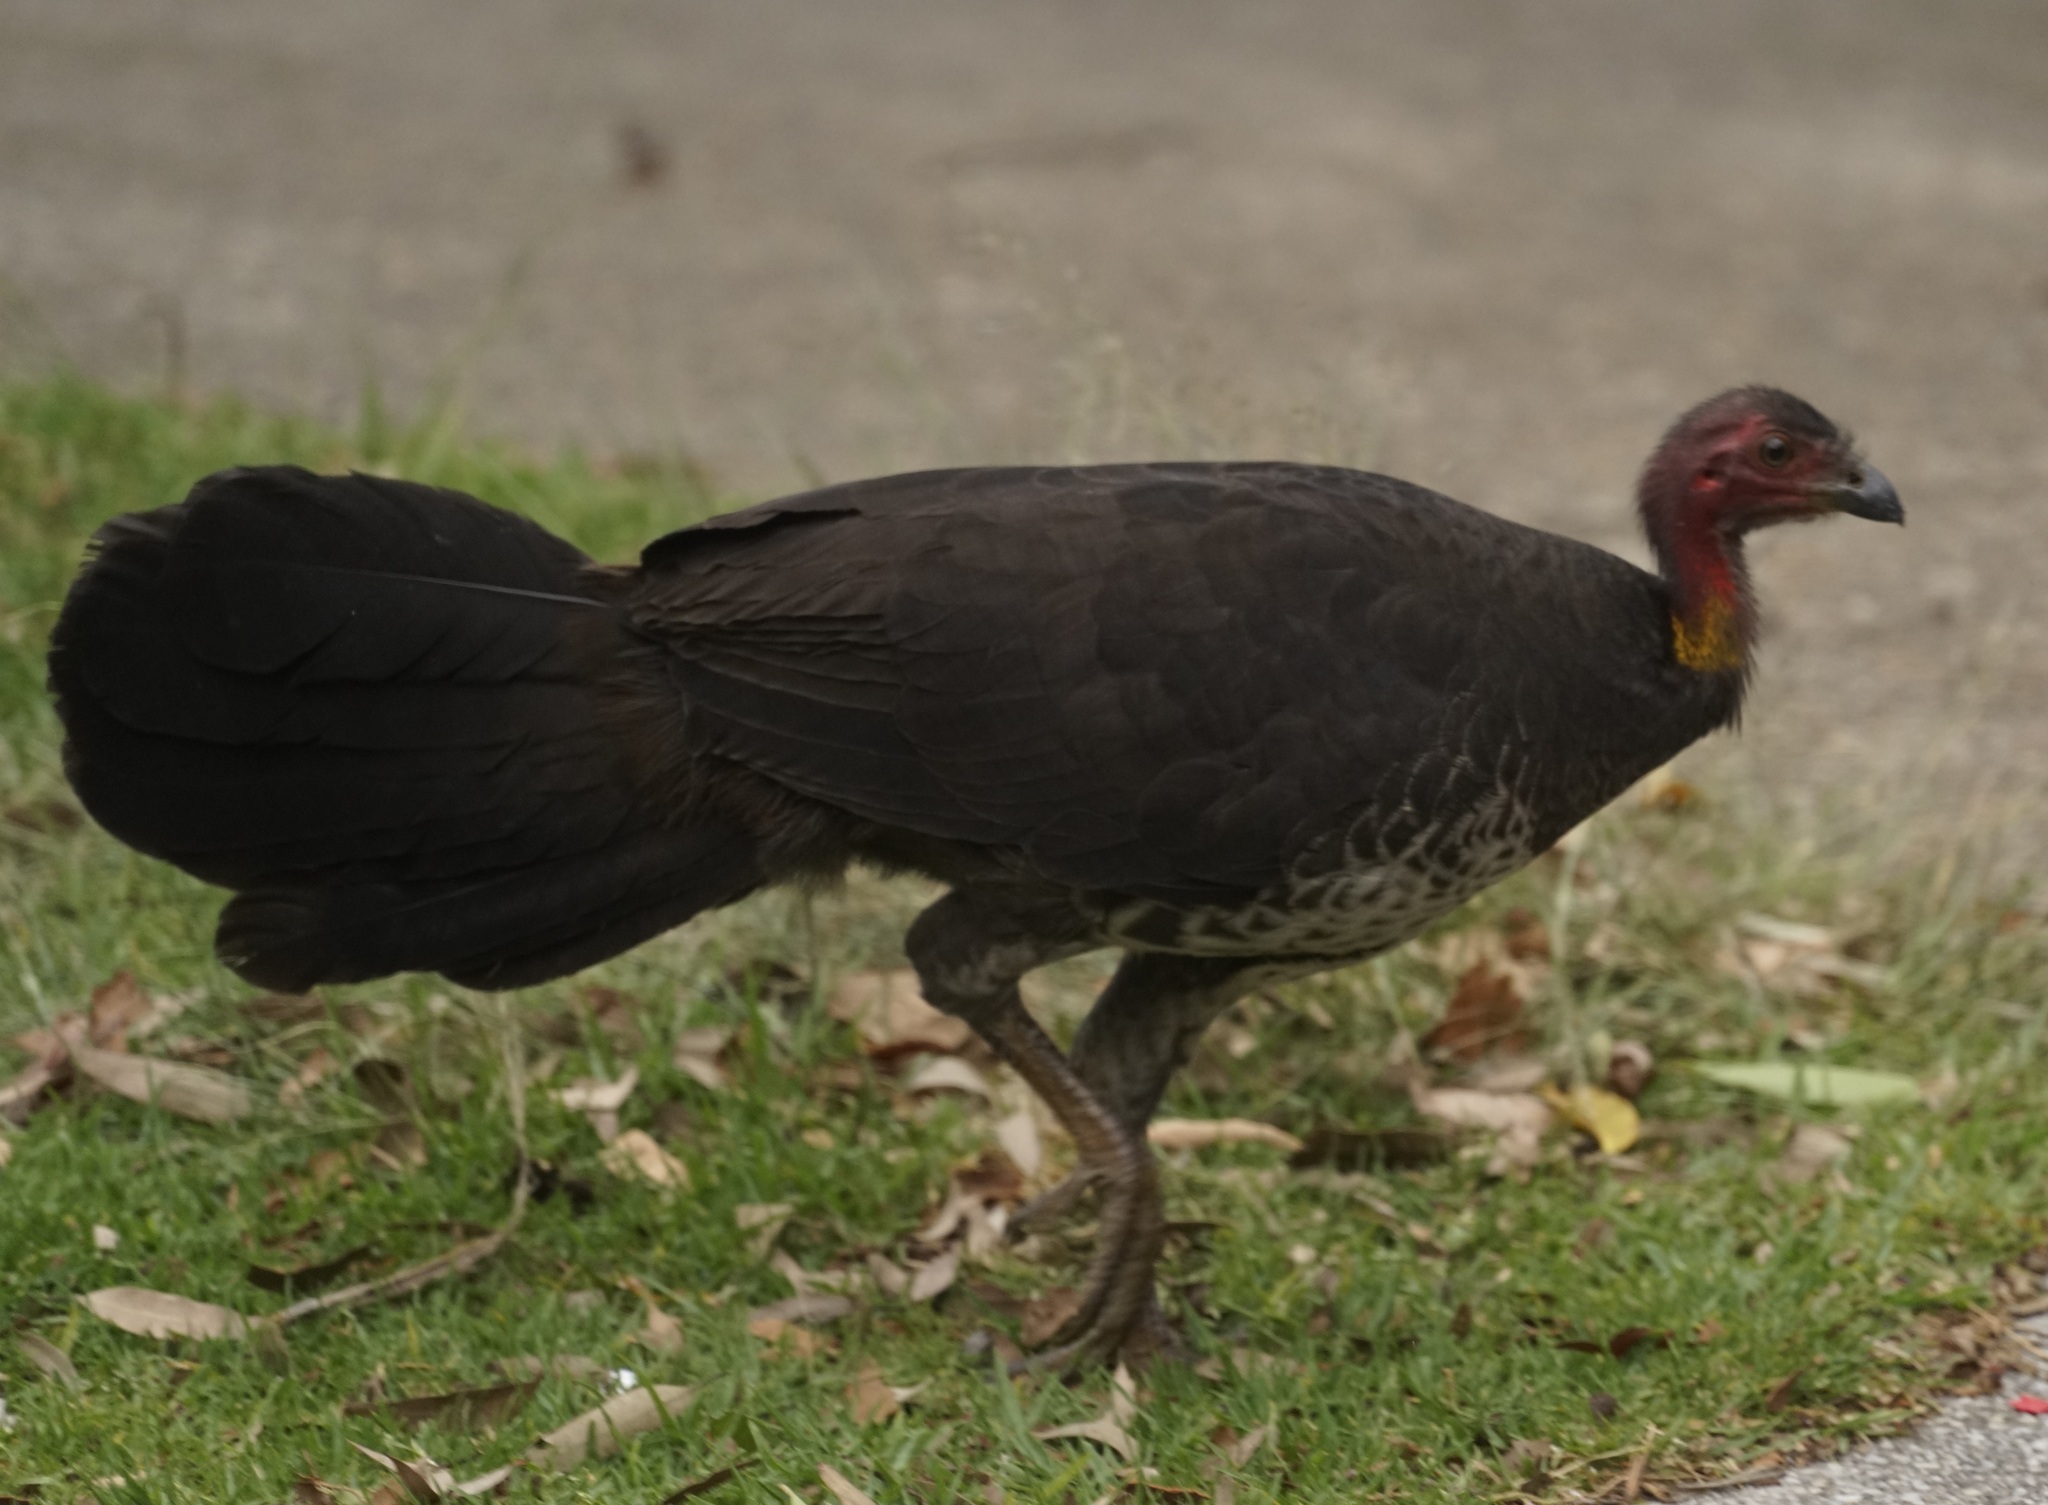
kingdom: Animalia
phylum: Chordata
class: Aves
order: Galliformes
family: Megapodiidae
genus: Alectura
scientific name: Alectura lathami
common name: Australian brushturkey
